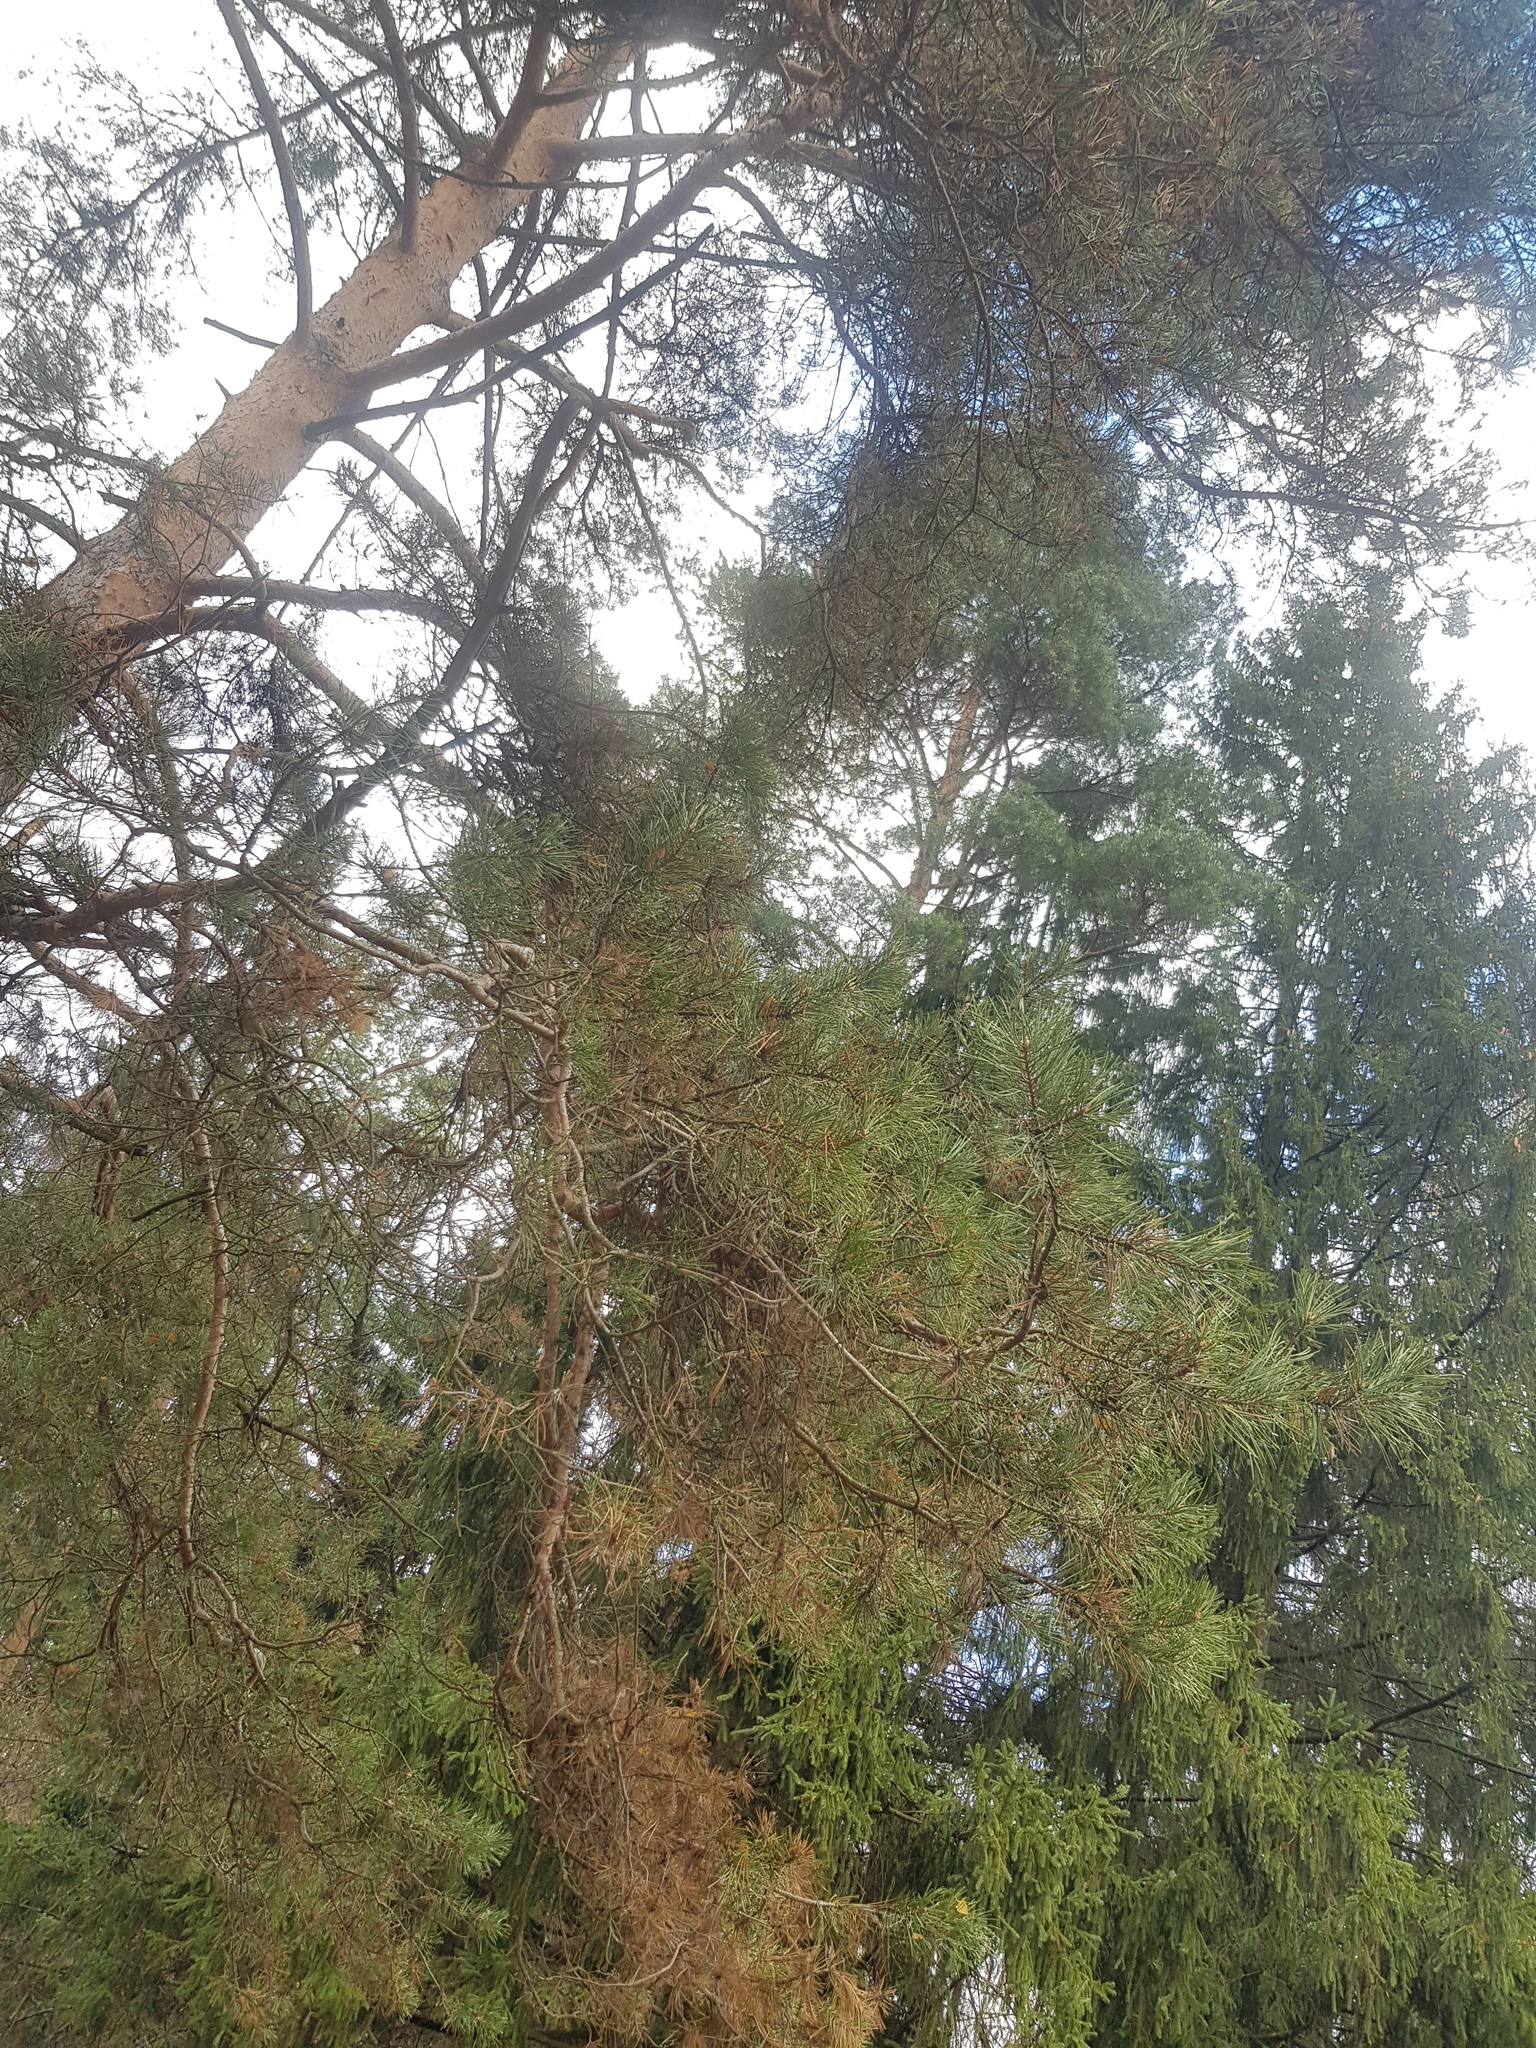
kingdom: Plantae
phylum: Tracheophyta
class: Pinopsida
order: Pinales
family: Pinaceae
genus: Pinus
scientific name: Pinus sylvestris
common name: Scots pine
